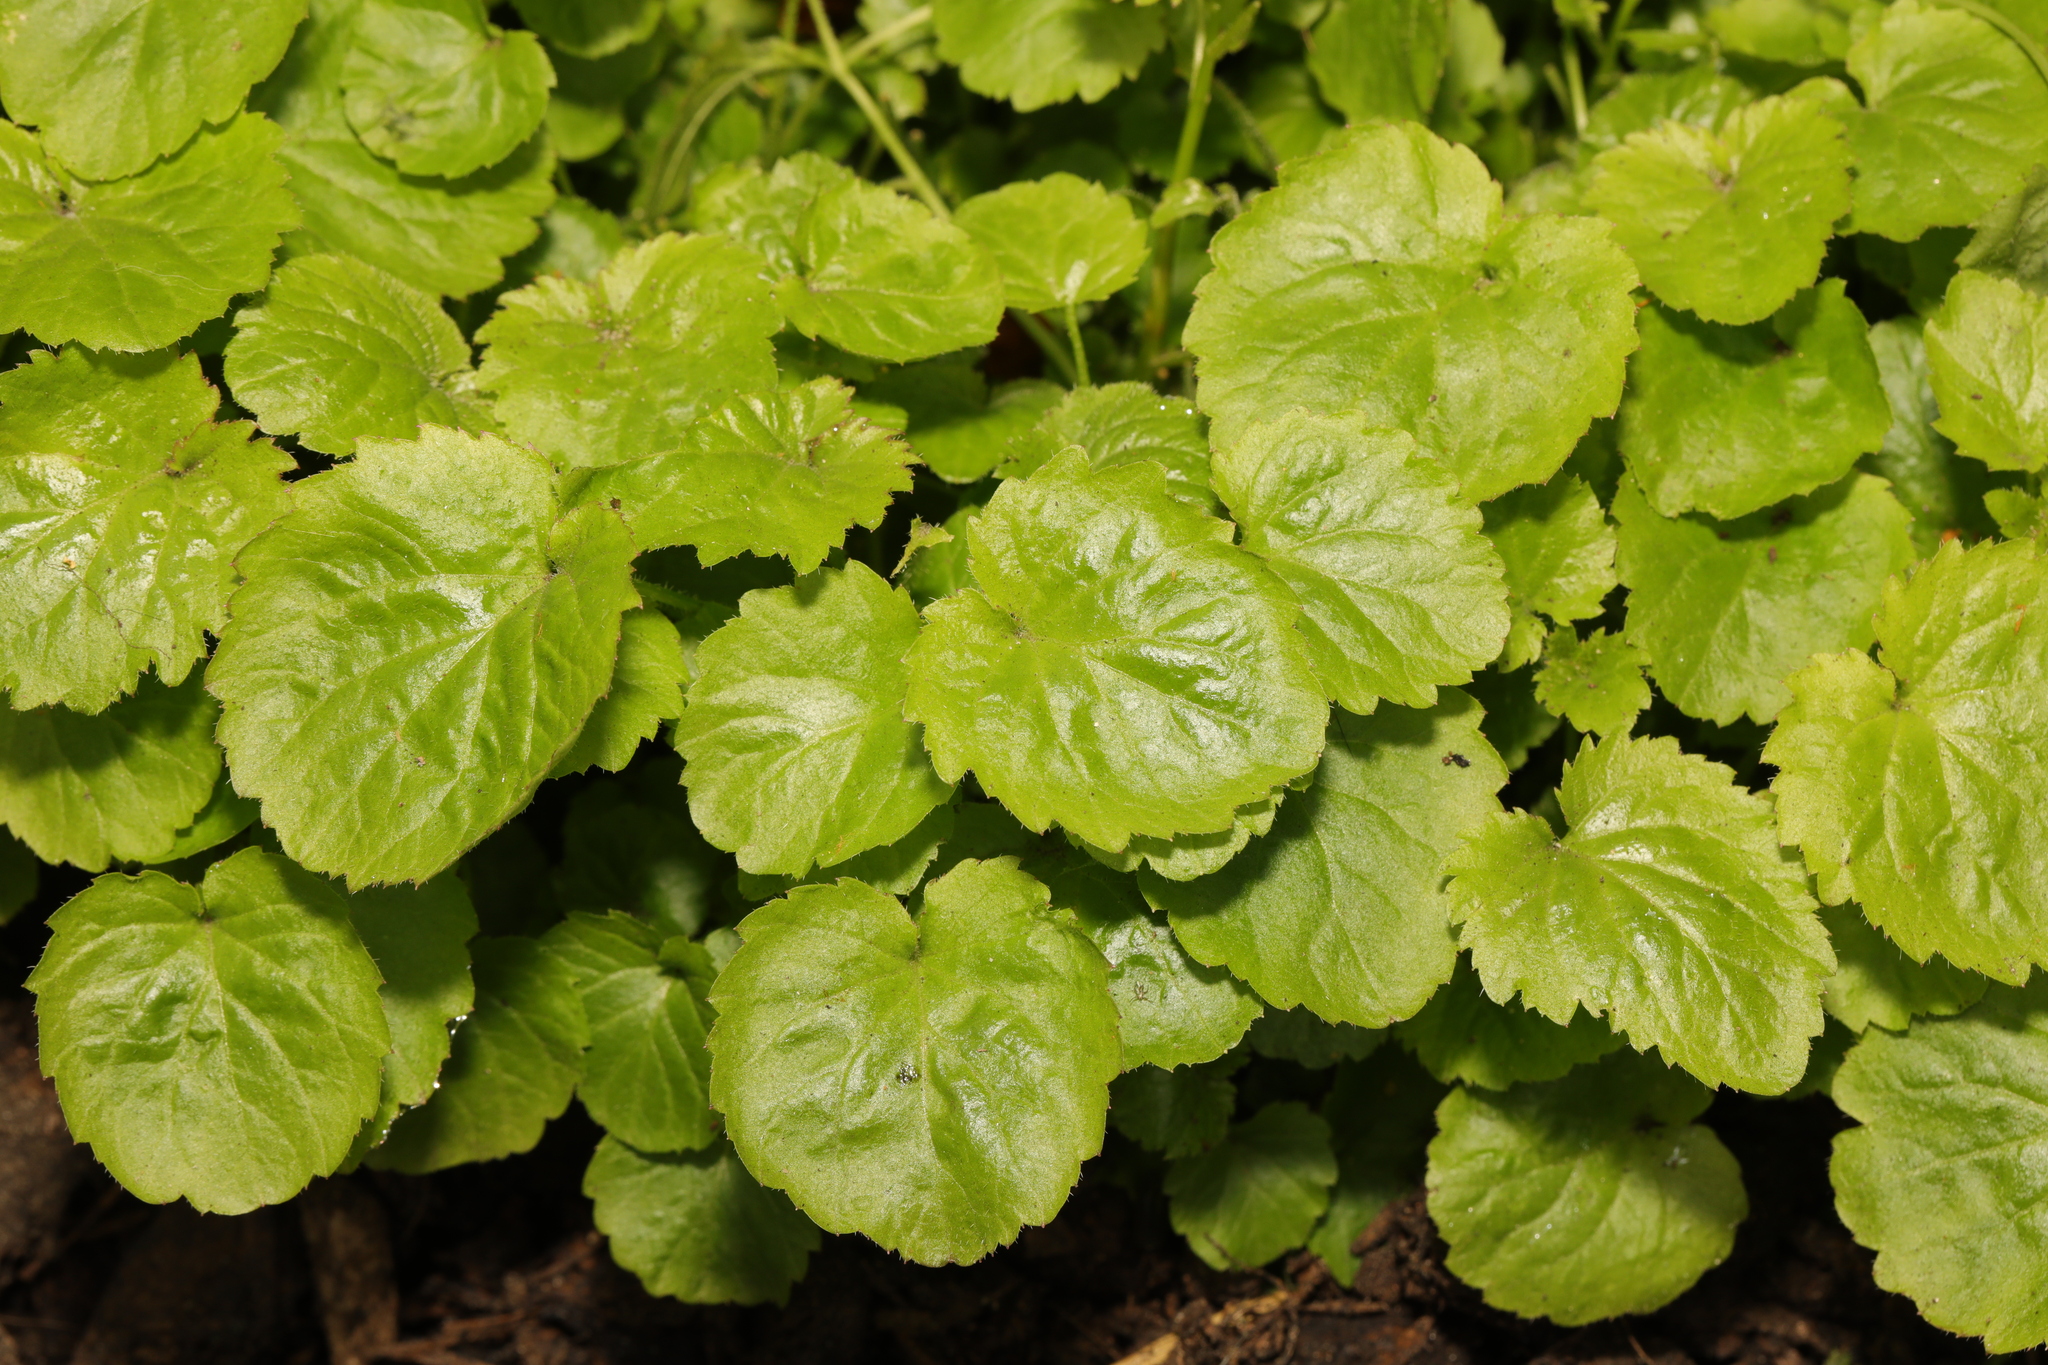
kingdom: Plantae
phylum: Tracheophyta
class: Magnoliopsida
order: Asterales
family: Campanulaceae
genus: Campanula
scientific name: Campanula poscharskyana
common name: Trailing bellflower
